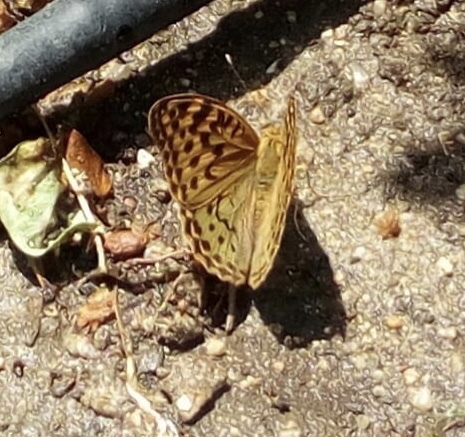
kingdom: Animalia
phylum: Arthropoda
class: Insecta
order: Lepidoptera
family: Nymphalidae
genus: Damora
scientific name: Damora pandora
